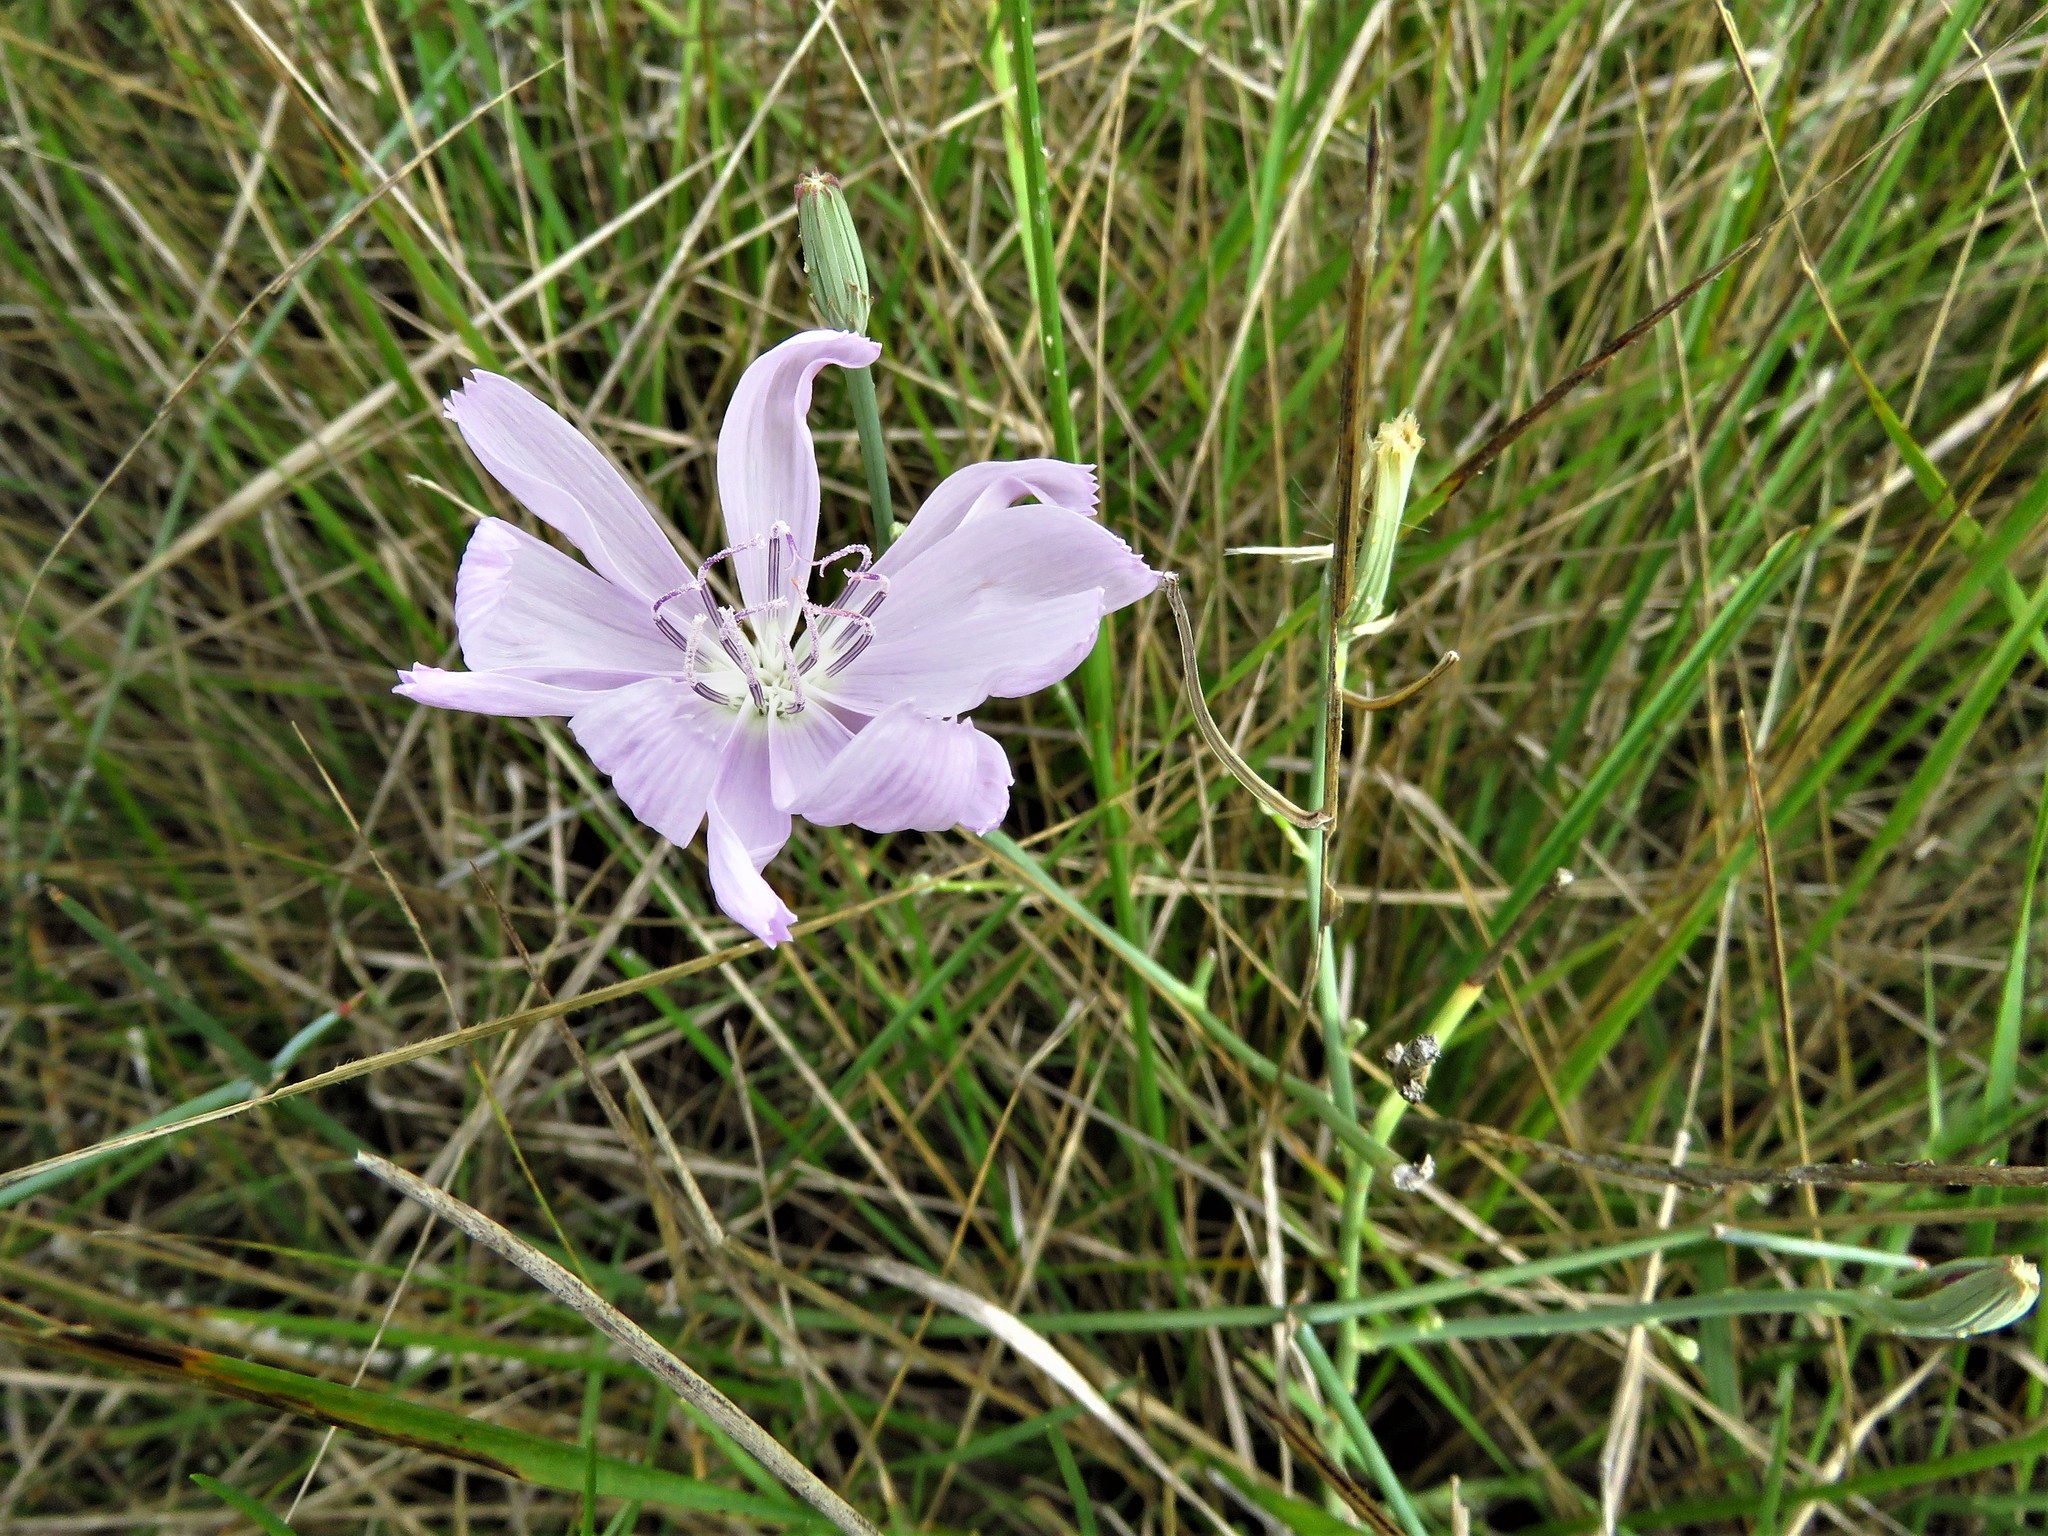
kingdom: Plantae
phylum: Tracheophyta
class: Magnoliopsida
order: Asterales
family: Asteraceae
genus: Lygodesmia
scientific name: Lygodesmia texana
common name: Texas skeleton-plant
